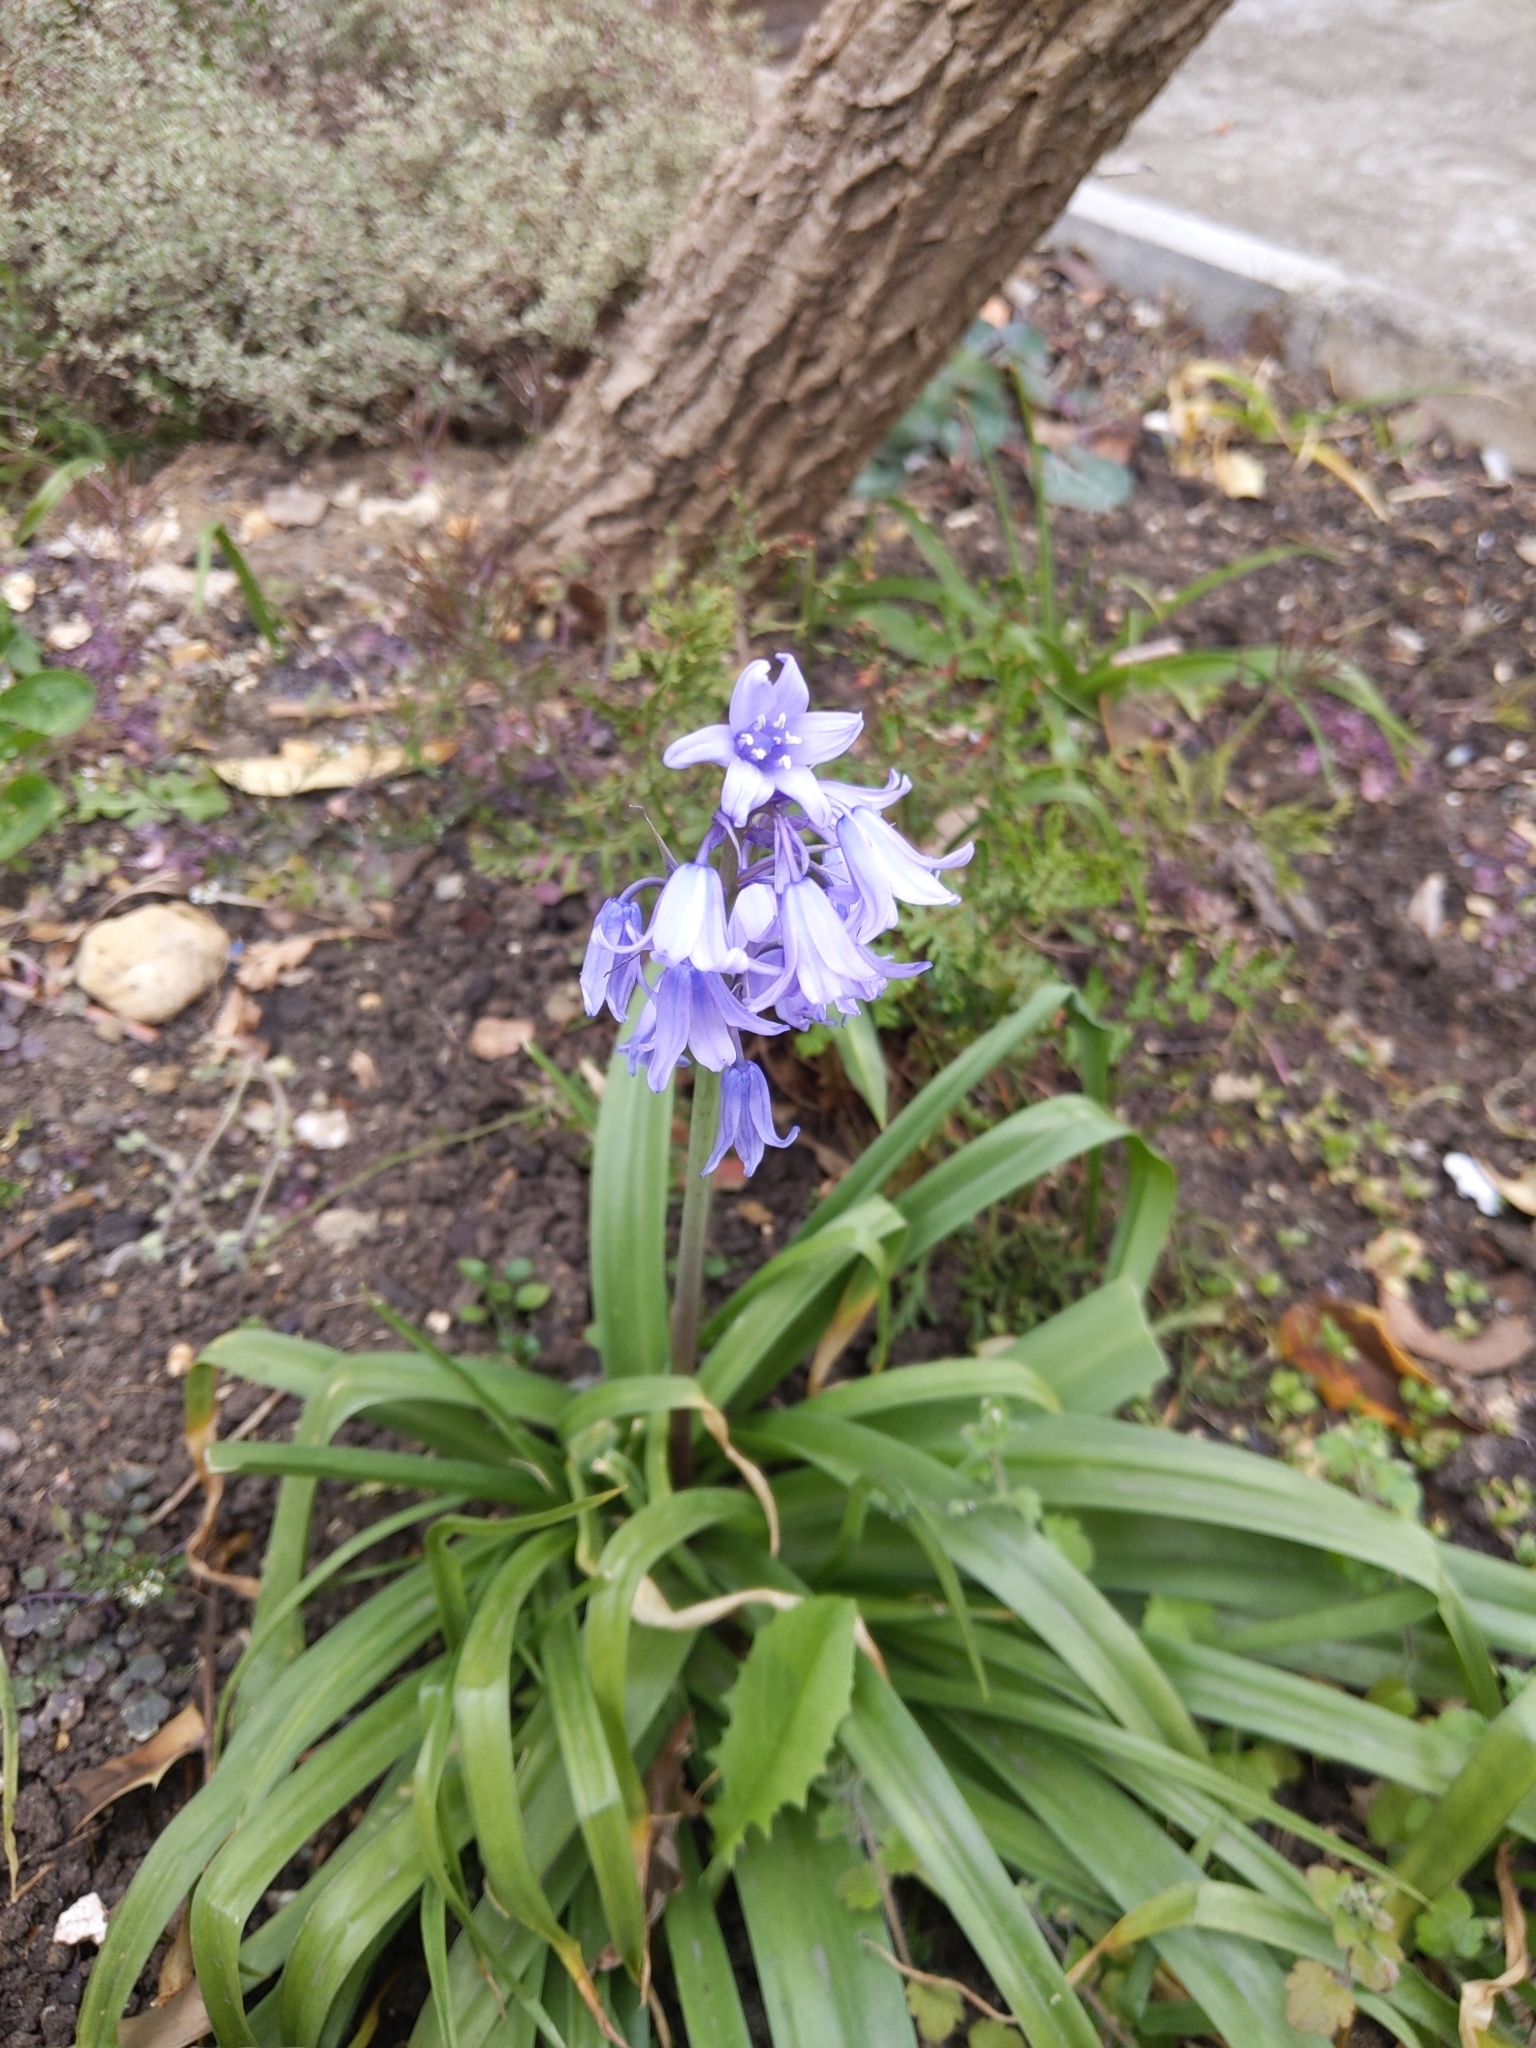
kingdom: Plantae
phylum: Tracheophyta
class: Liliopsida
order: Asparagales
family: Asparagaceae
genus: Hyacinthoides
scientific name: Hyacinthoides massartiana
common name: Hyacinthoides
